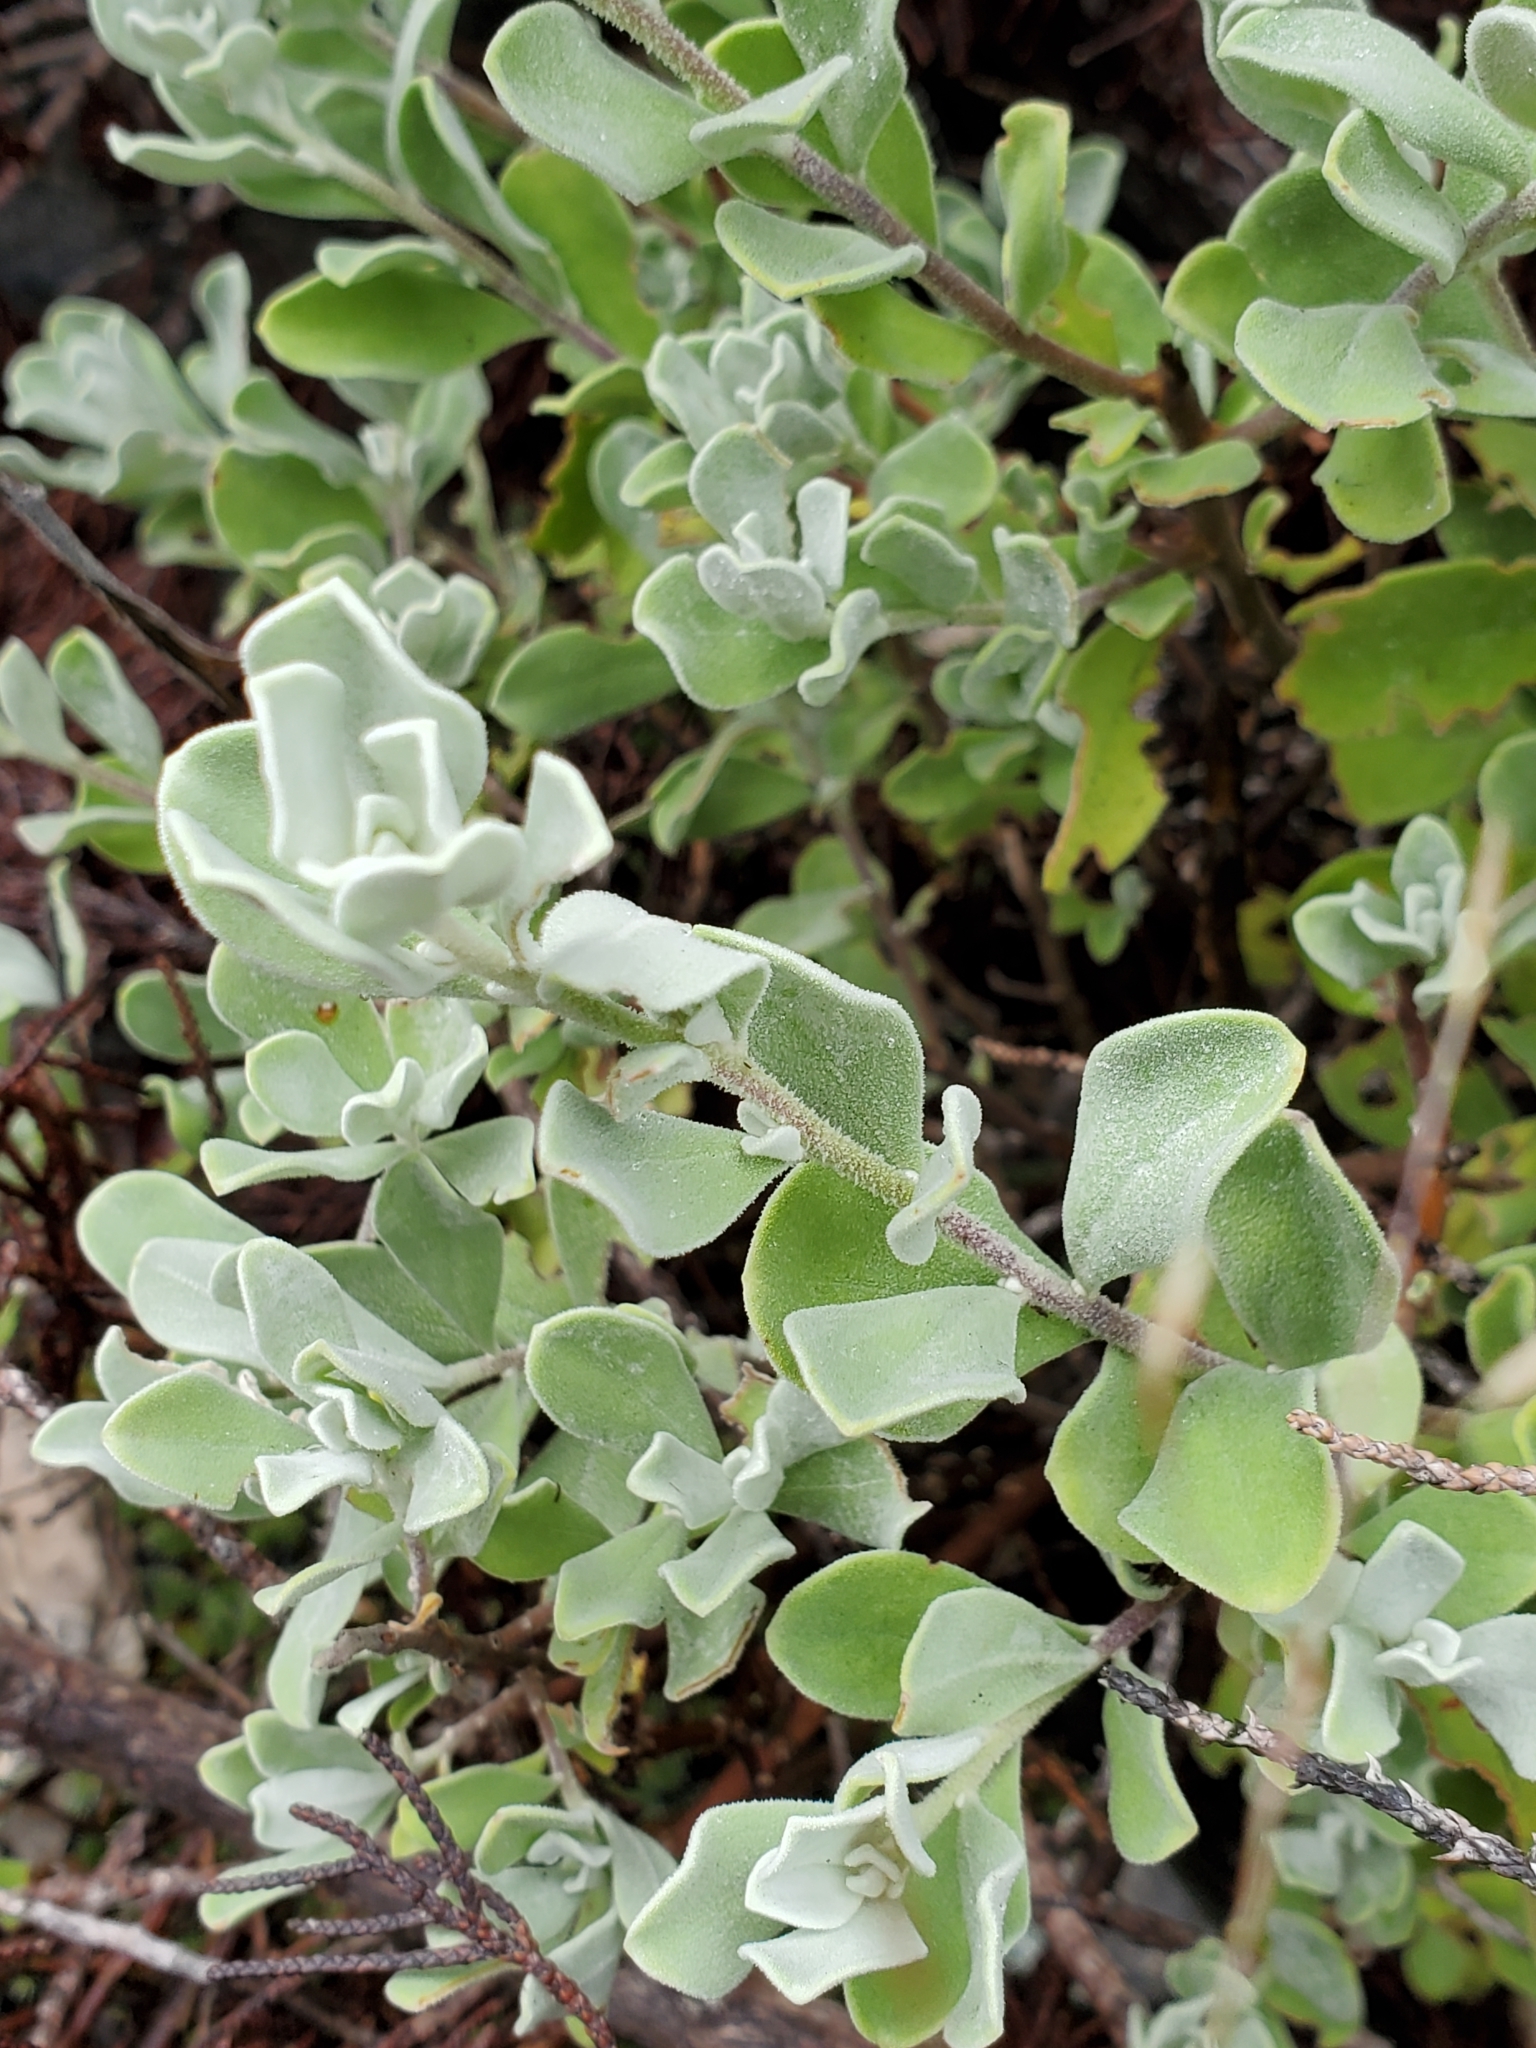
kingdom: Plantae
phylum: Tracheophyta
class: Magnoliopsida
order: Lamiales
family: Scrophulariaceae
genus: Leucophyllum
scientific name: Leucophyllum frutescens
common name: Texas silverleaf
